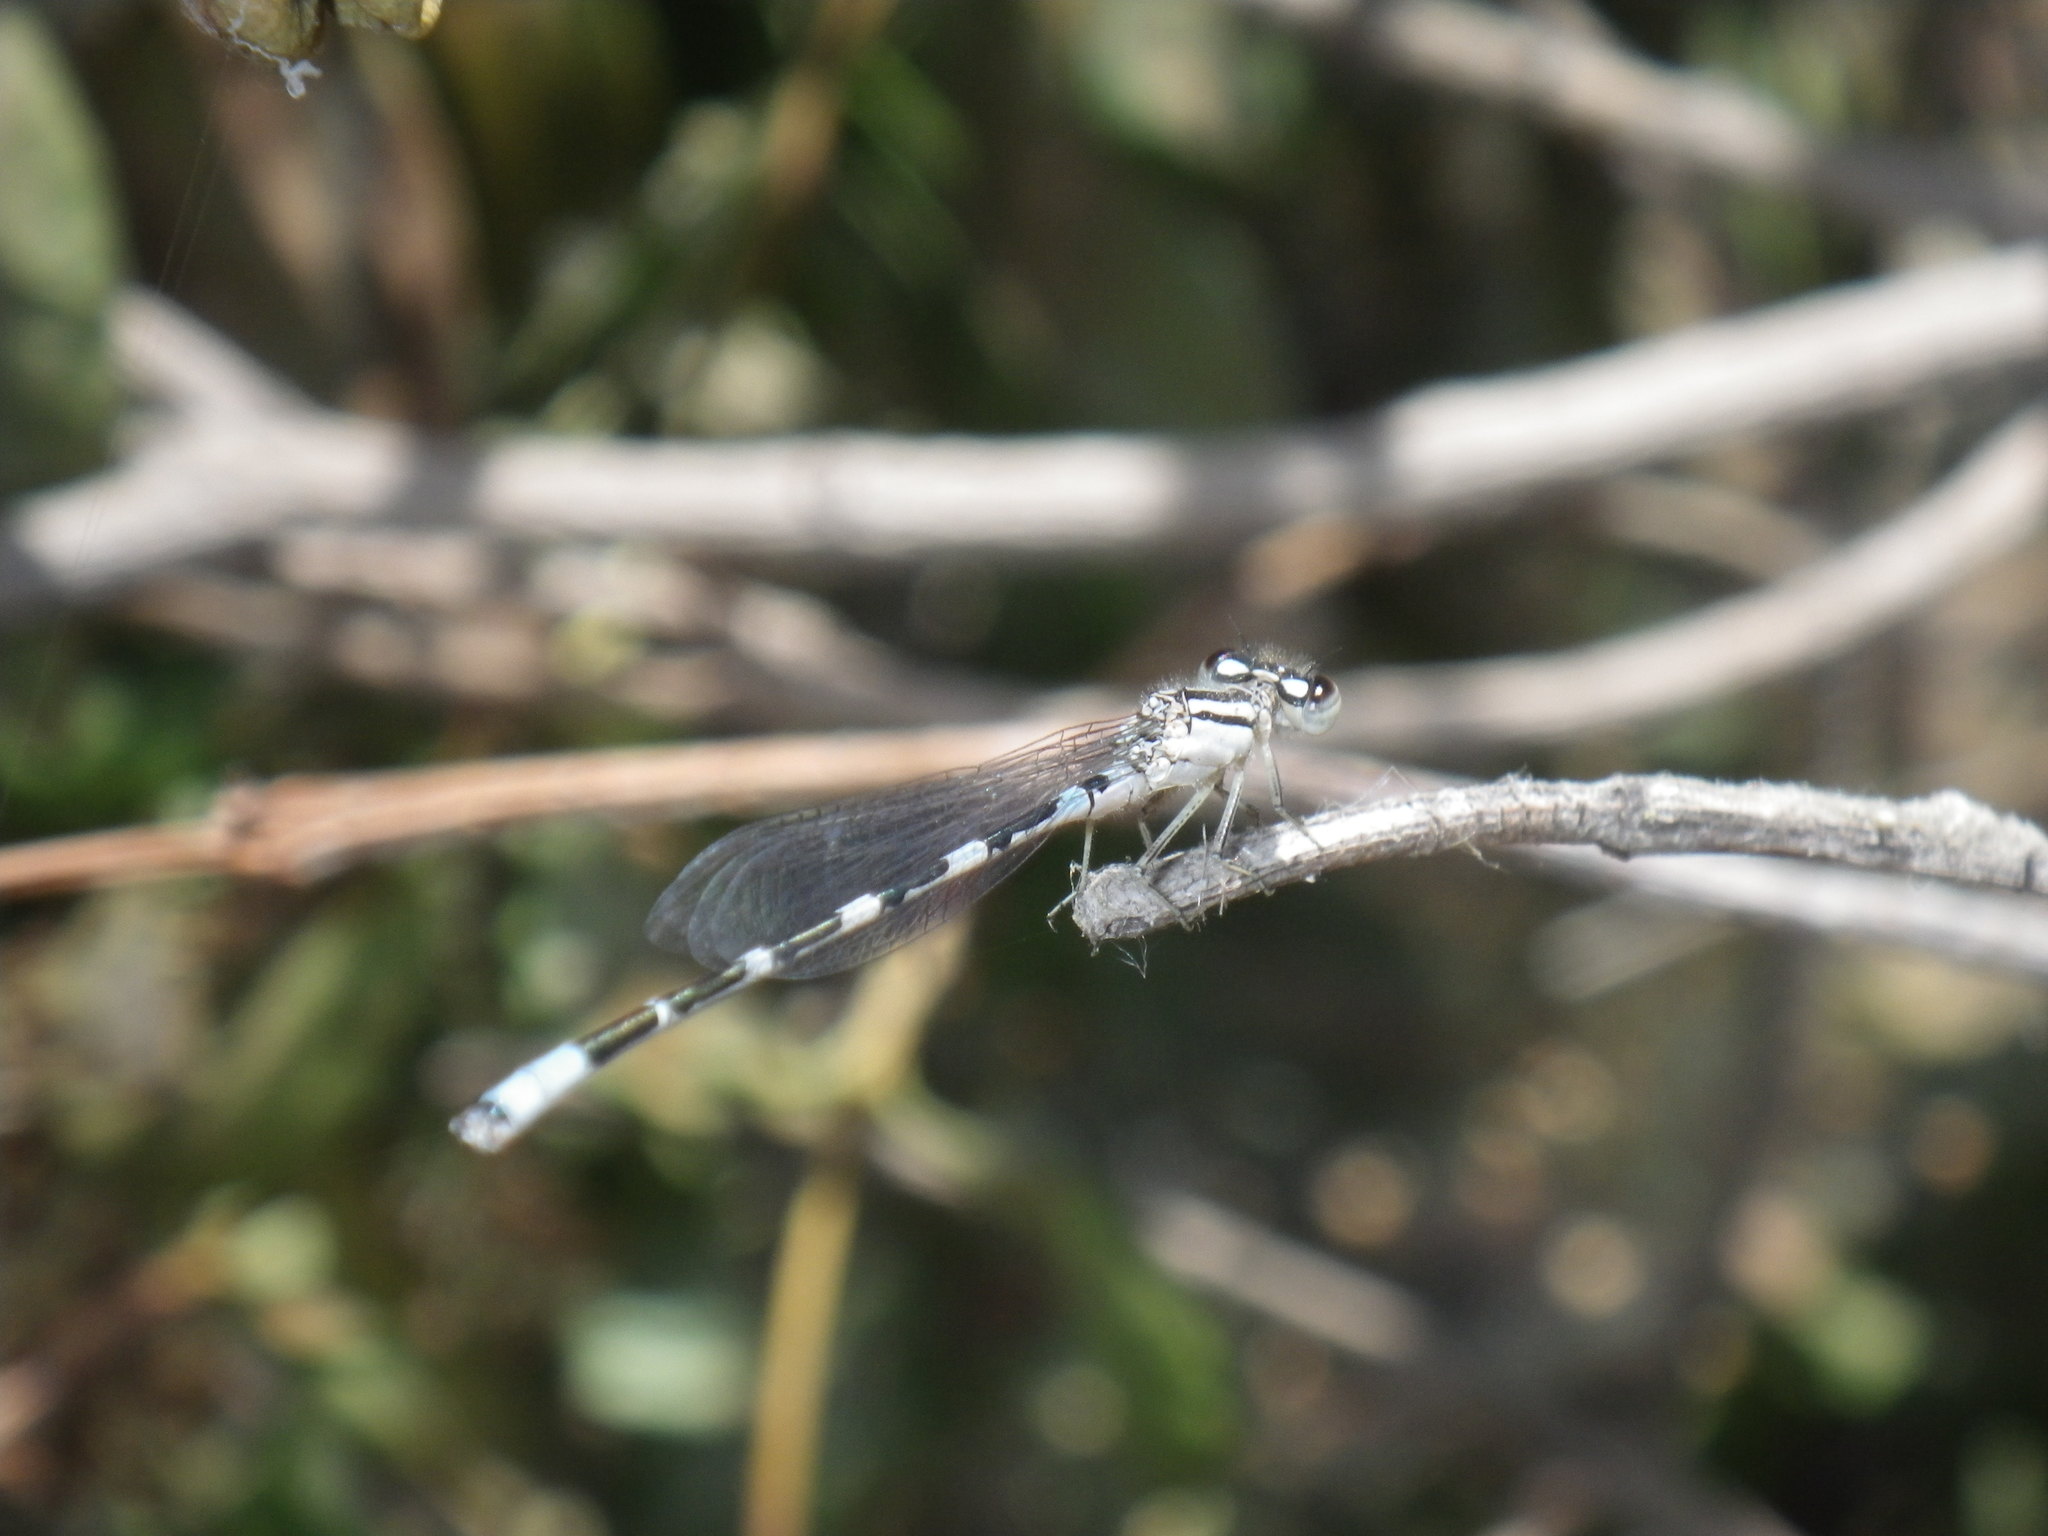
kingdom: Animalia
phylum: Arthropoda
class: Insecta
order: Odonata
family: Coenagrionidae
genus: Enallagma
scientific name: Enallagma civile
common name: Damselfly
